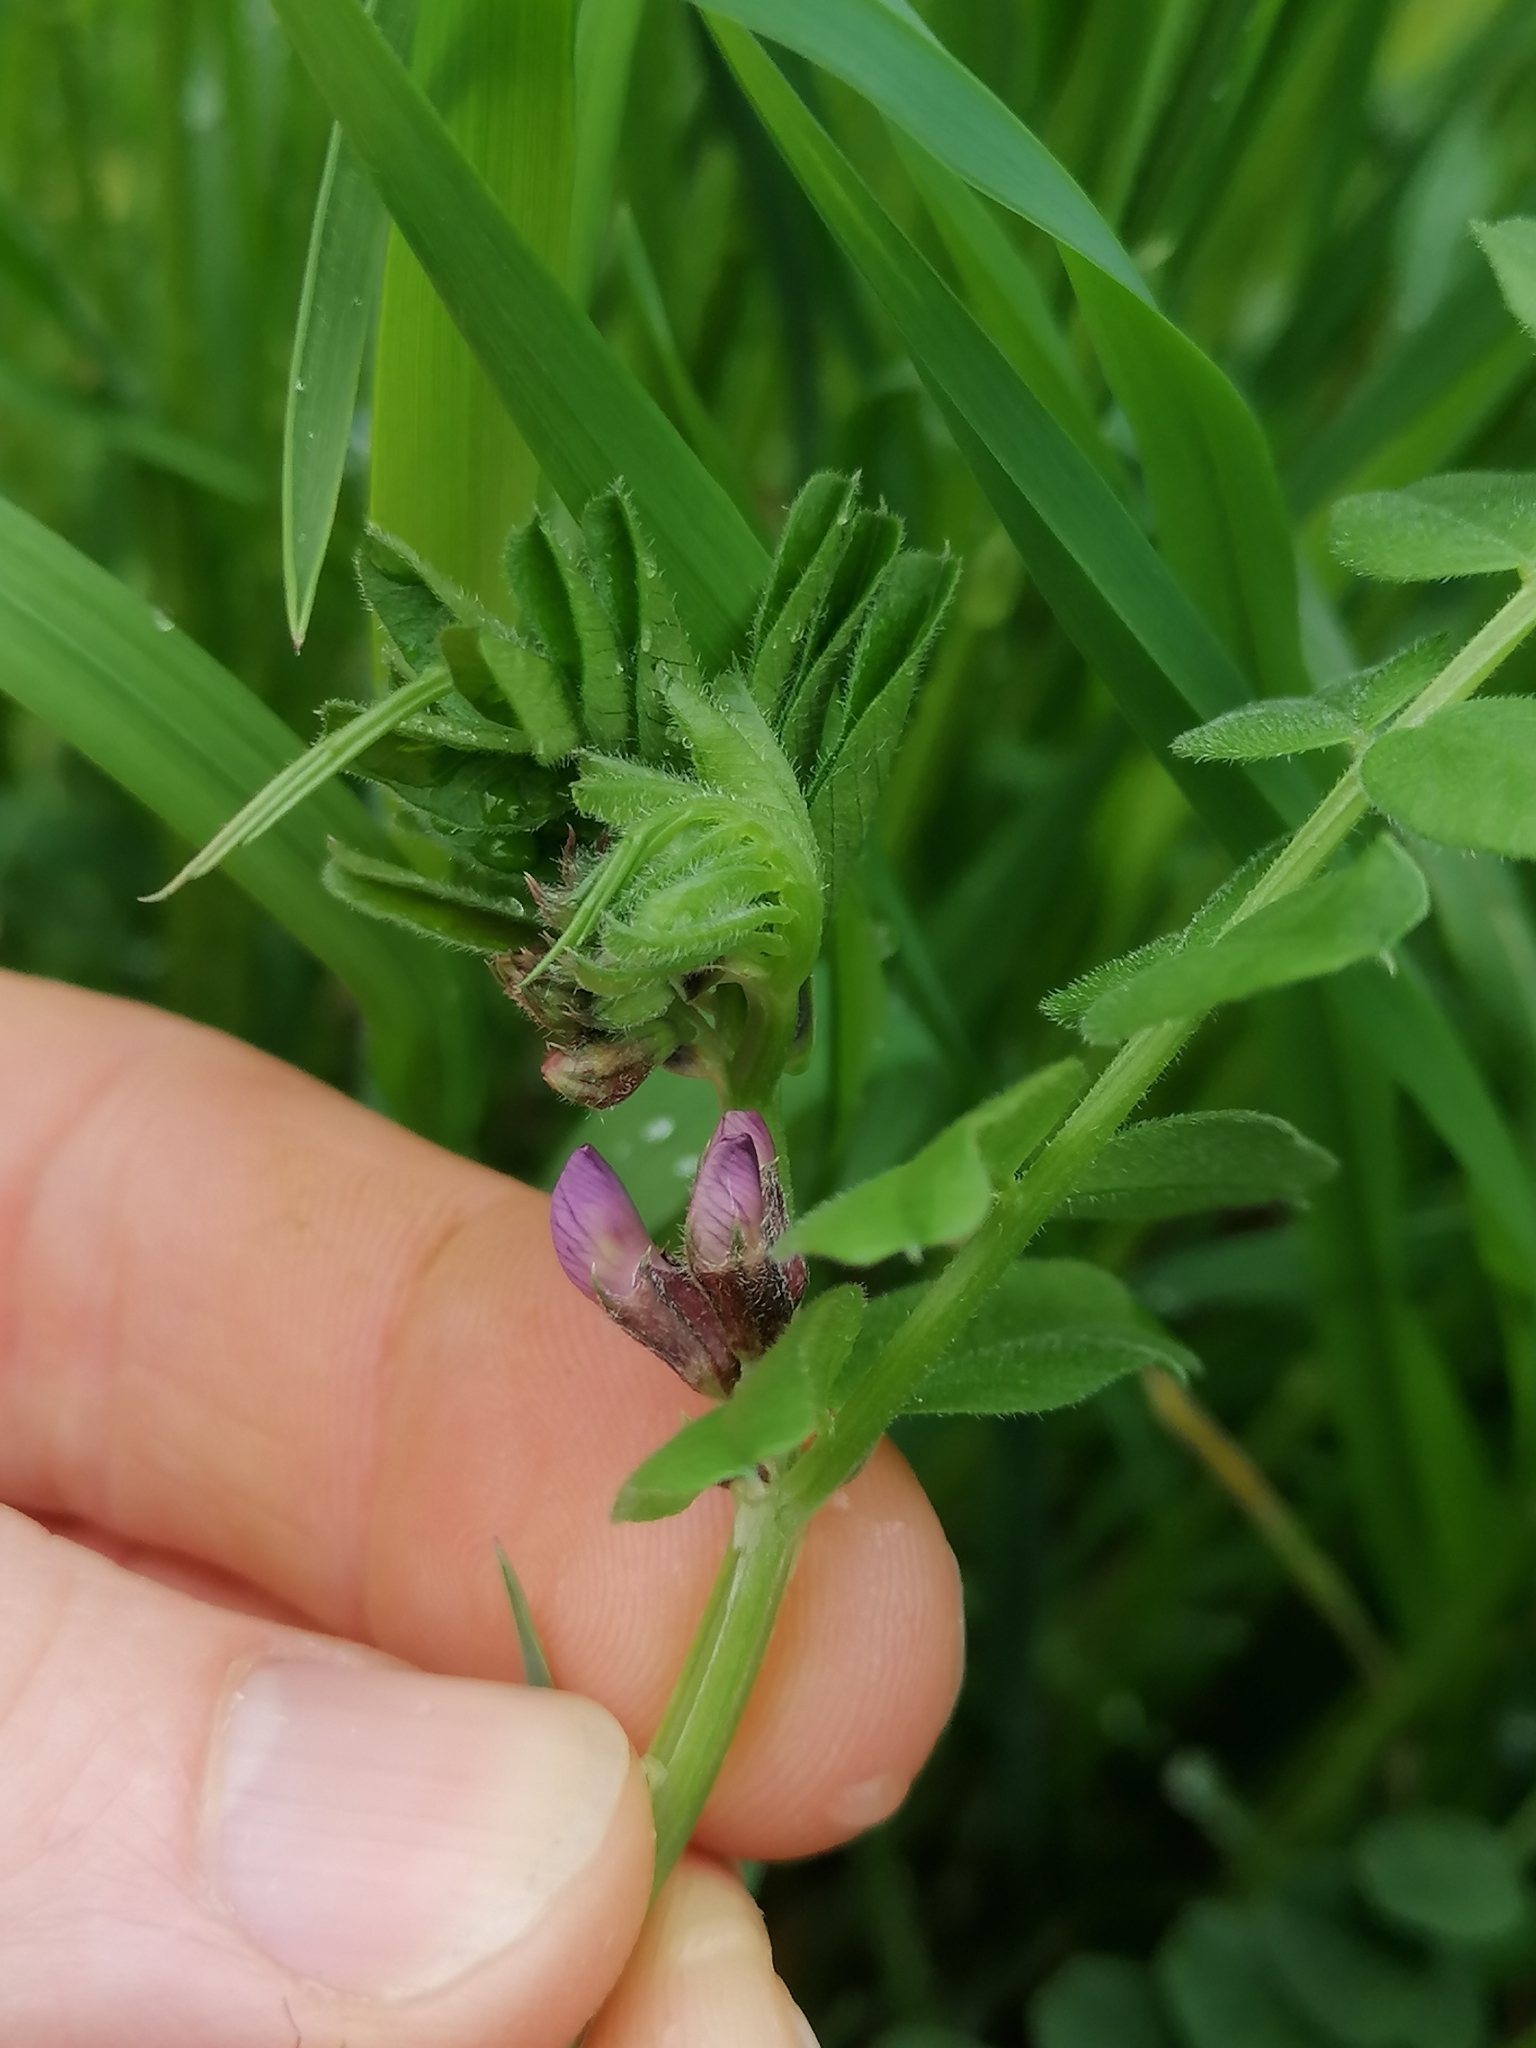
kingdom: Plantae
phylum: Tracheophyta
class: Magnoliopsida
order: Fabales
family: Fabaceae
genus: Vicia
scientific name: Vicia sepium
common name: Bush vetch
